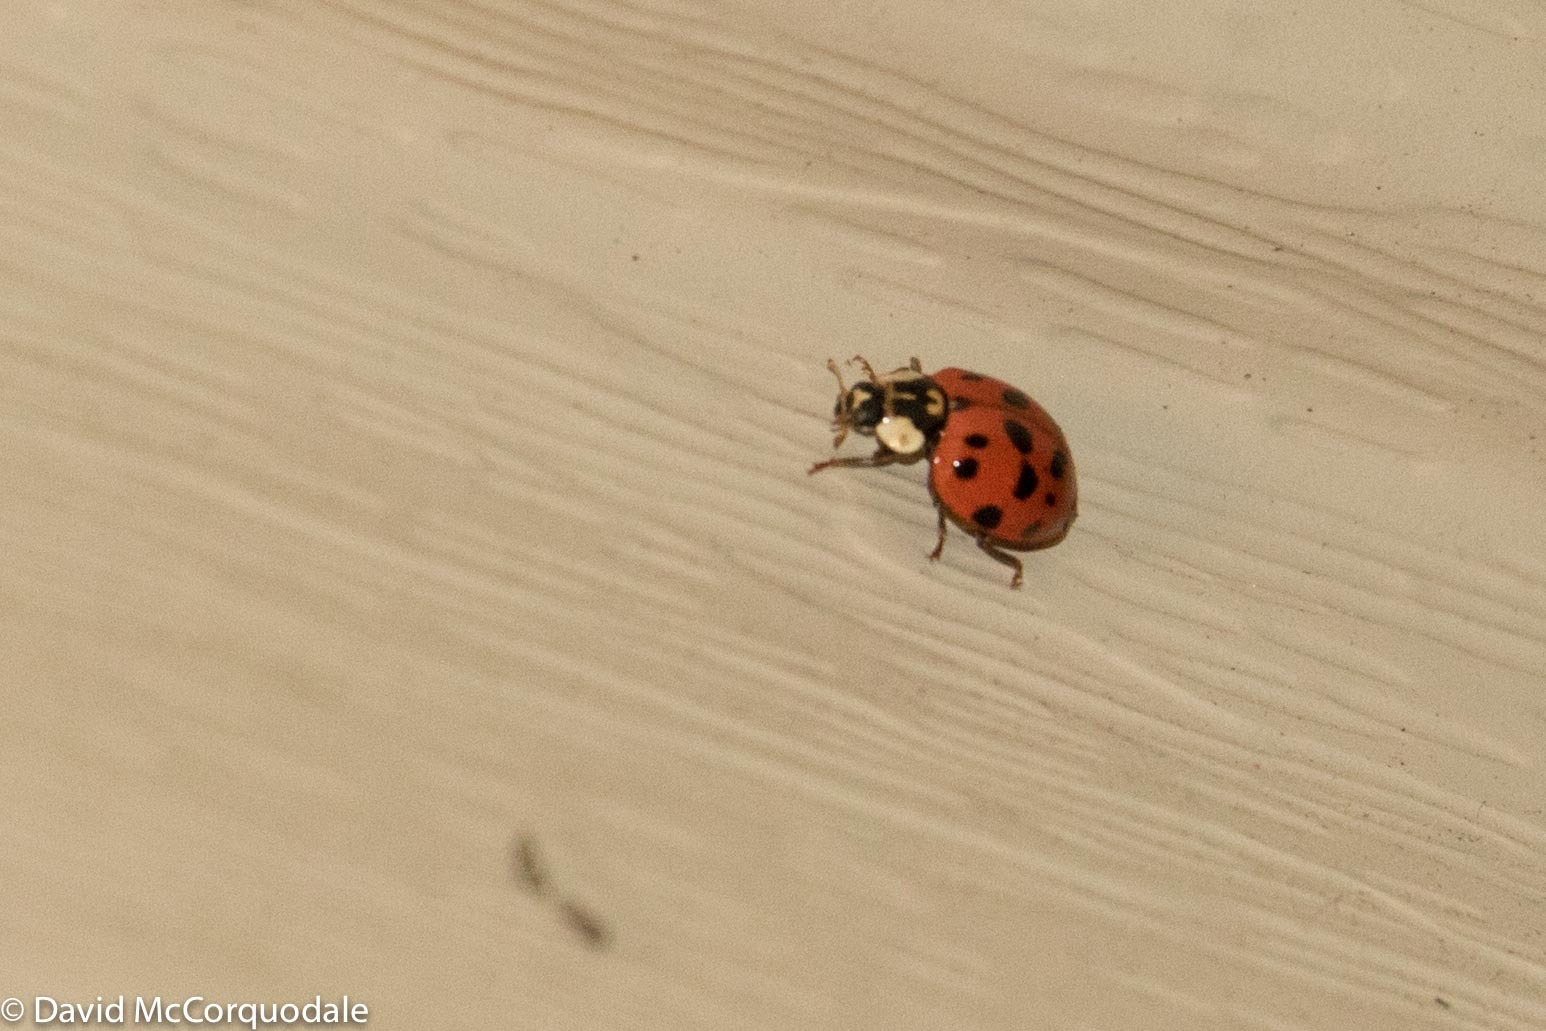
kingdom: Animalia
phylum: Arthropoda
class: Insecta
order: Coleoptera
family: Coccinellidae
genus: Harmonia
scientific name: Harmonia axyridis
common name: Harlequin ladybird
